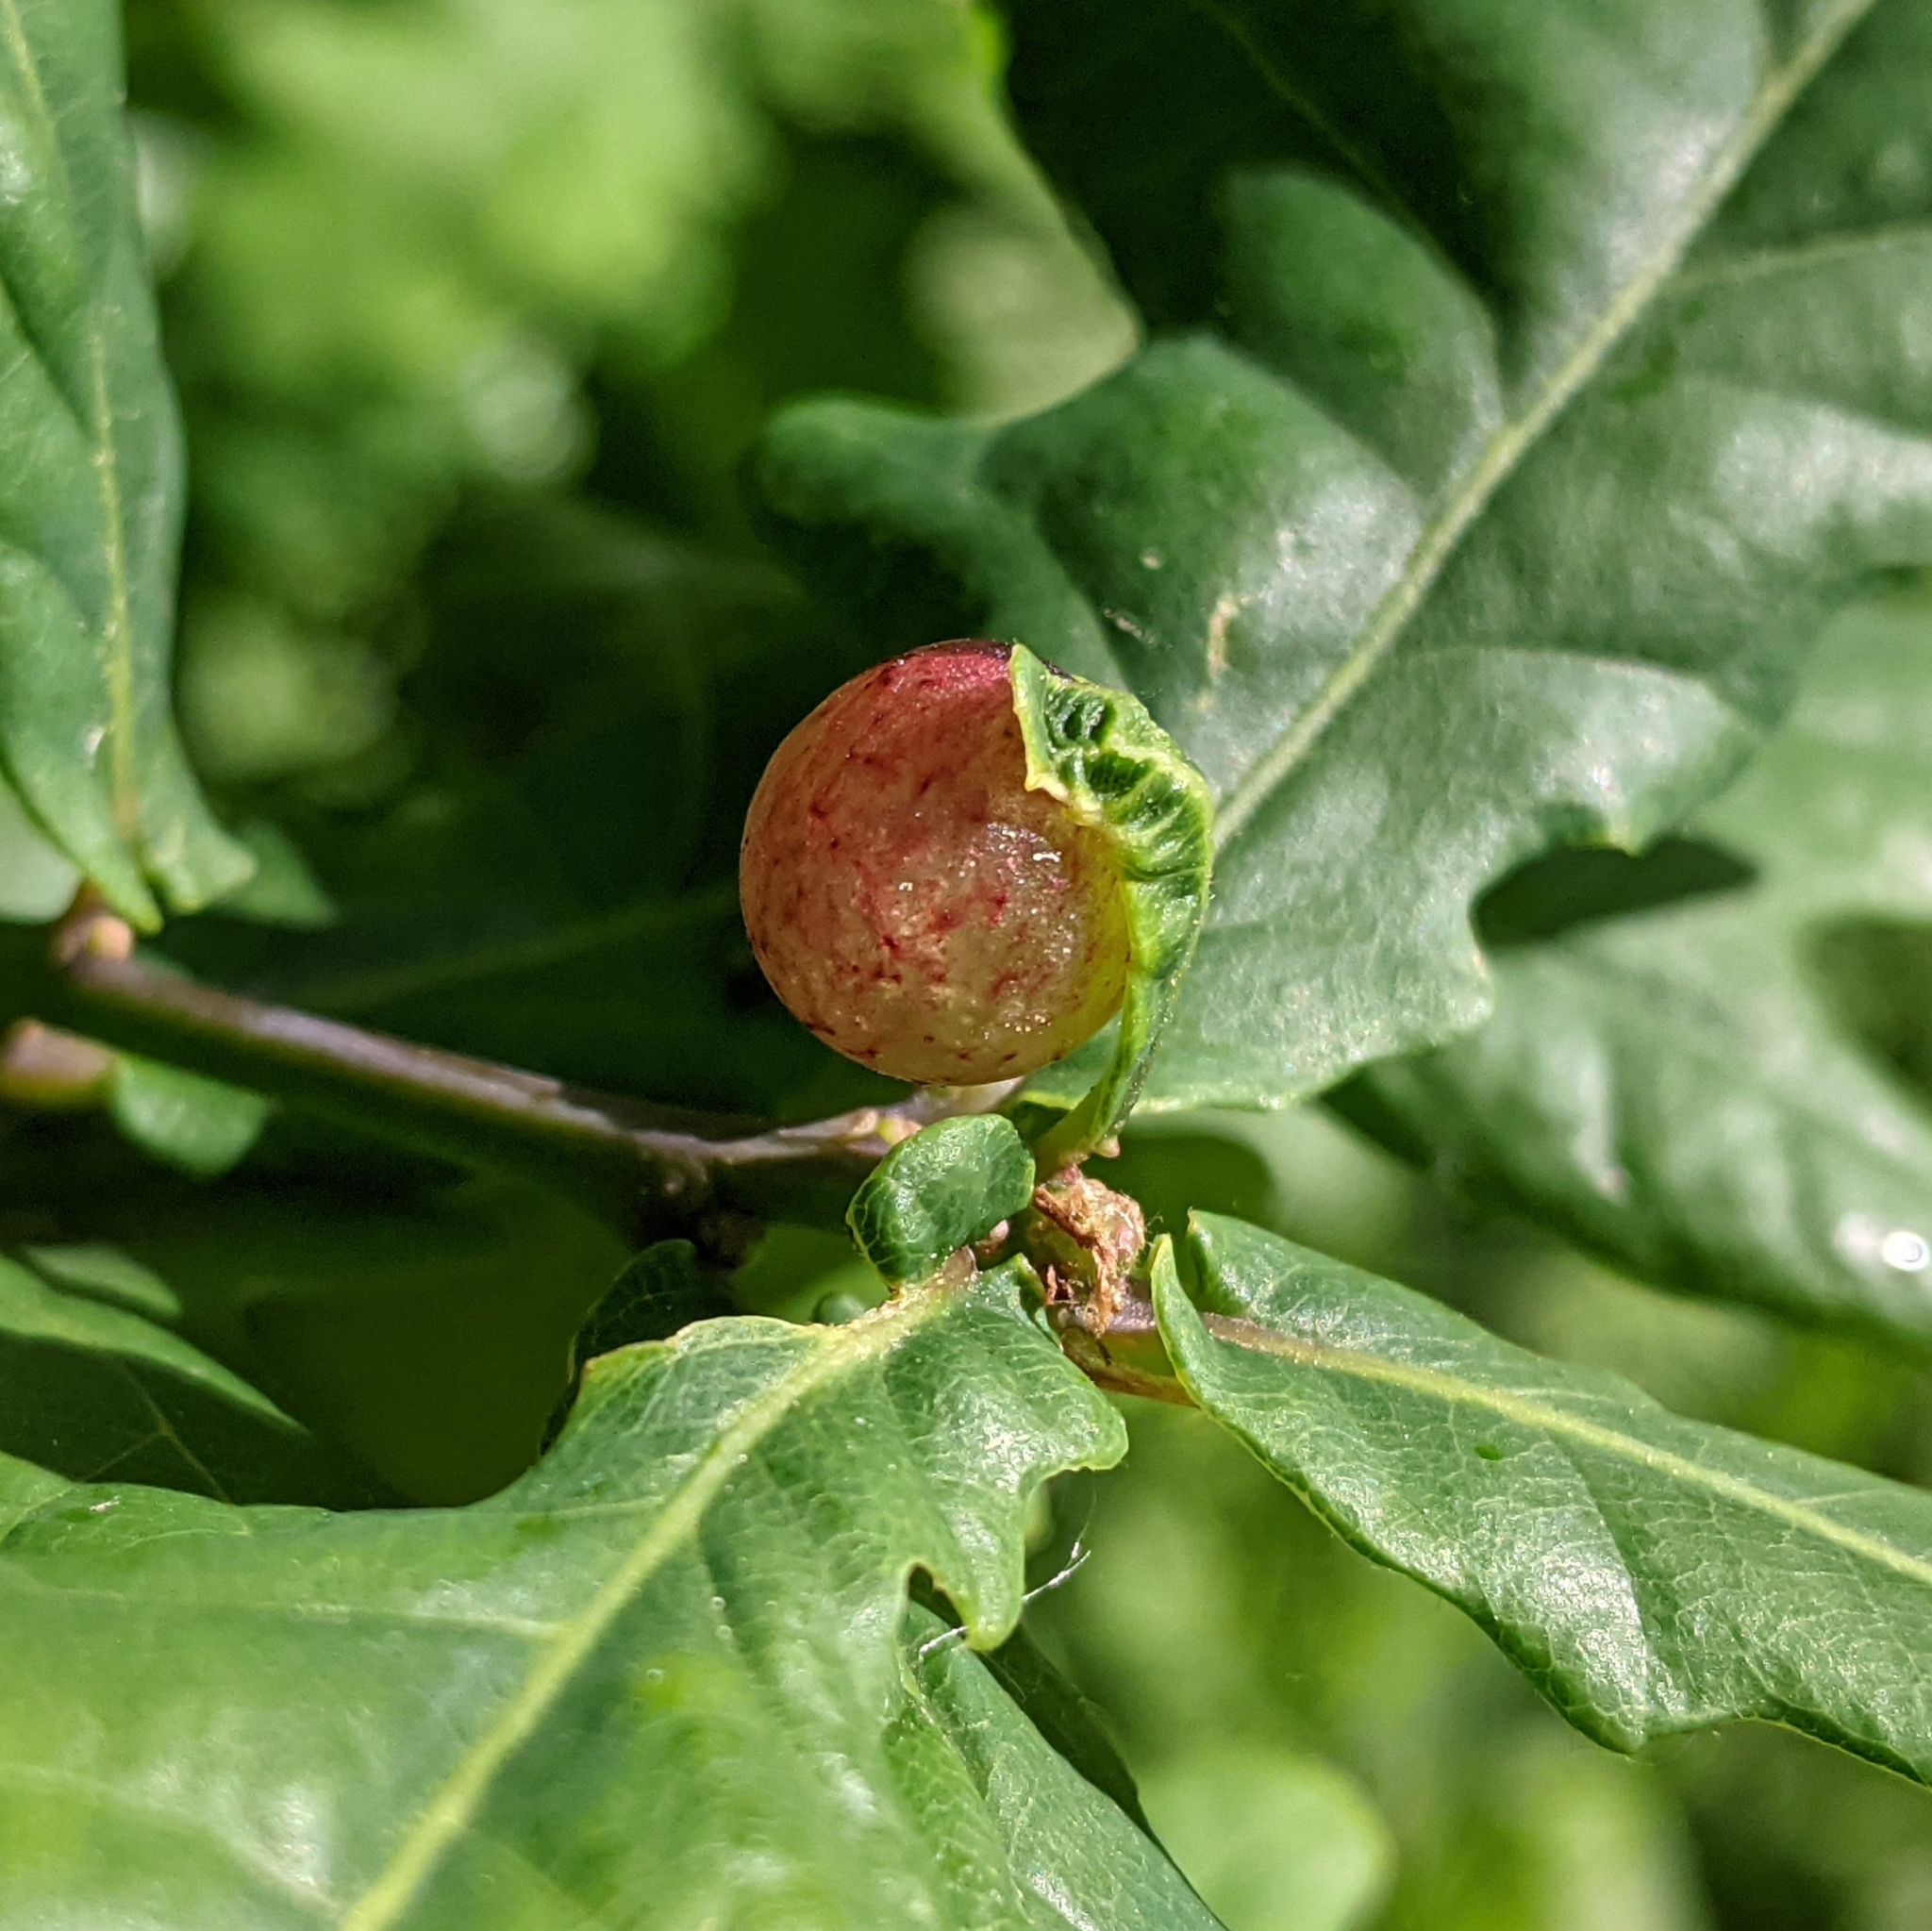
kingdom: Animalia
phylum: Arthropoda
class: Insecta
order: Hymenoptera
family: Cynipidae
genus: Neuroterus
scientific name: Neuroterus quercusbaccarum
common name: Common spangle gall
